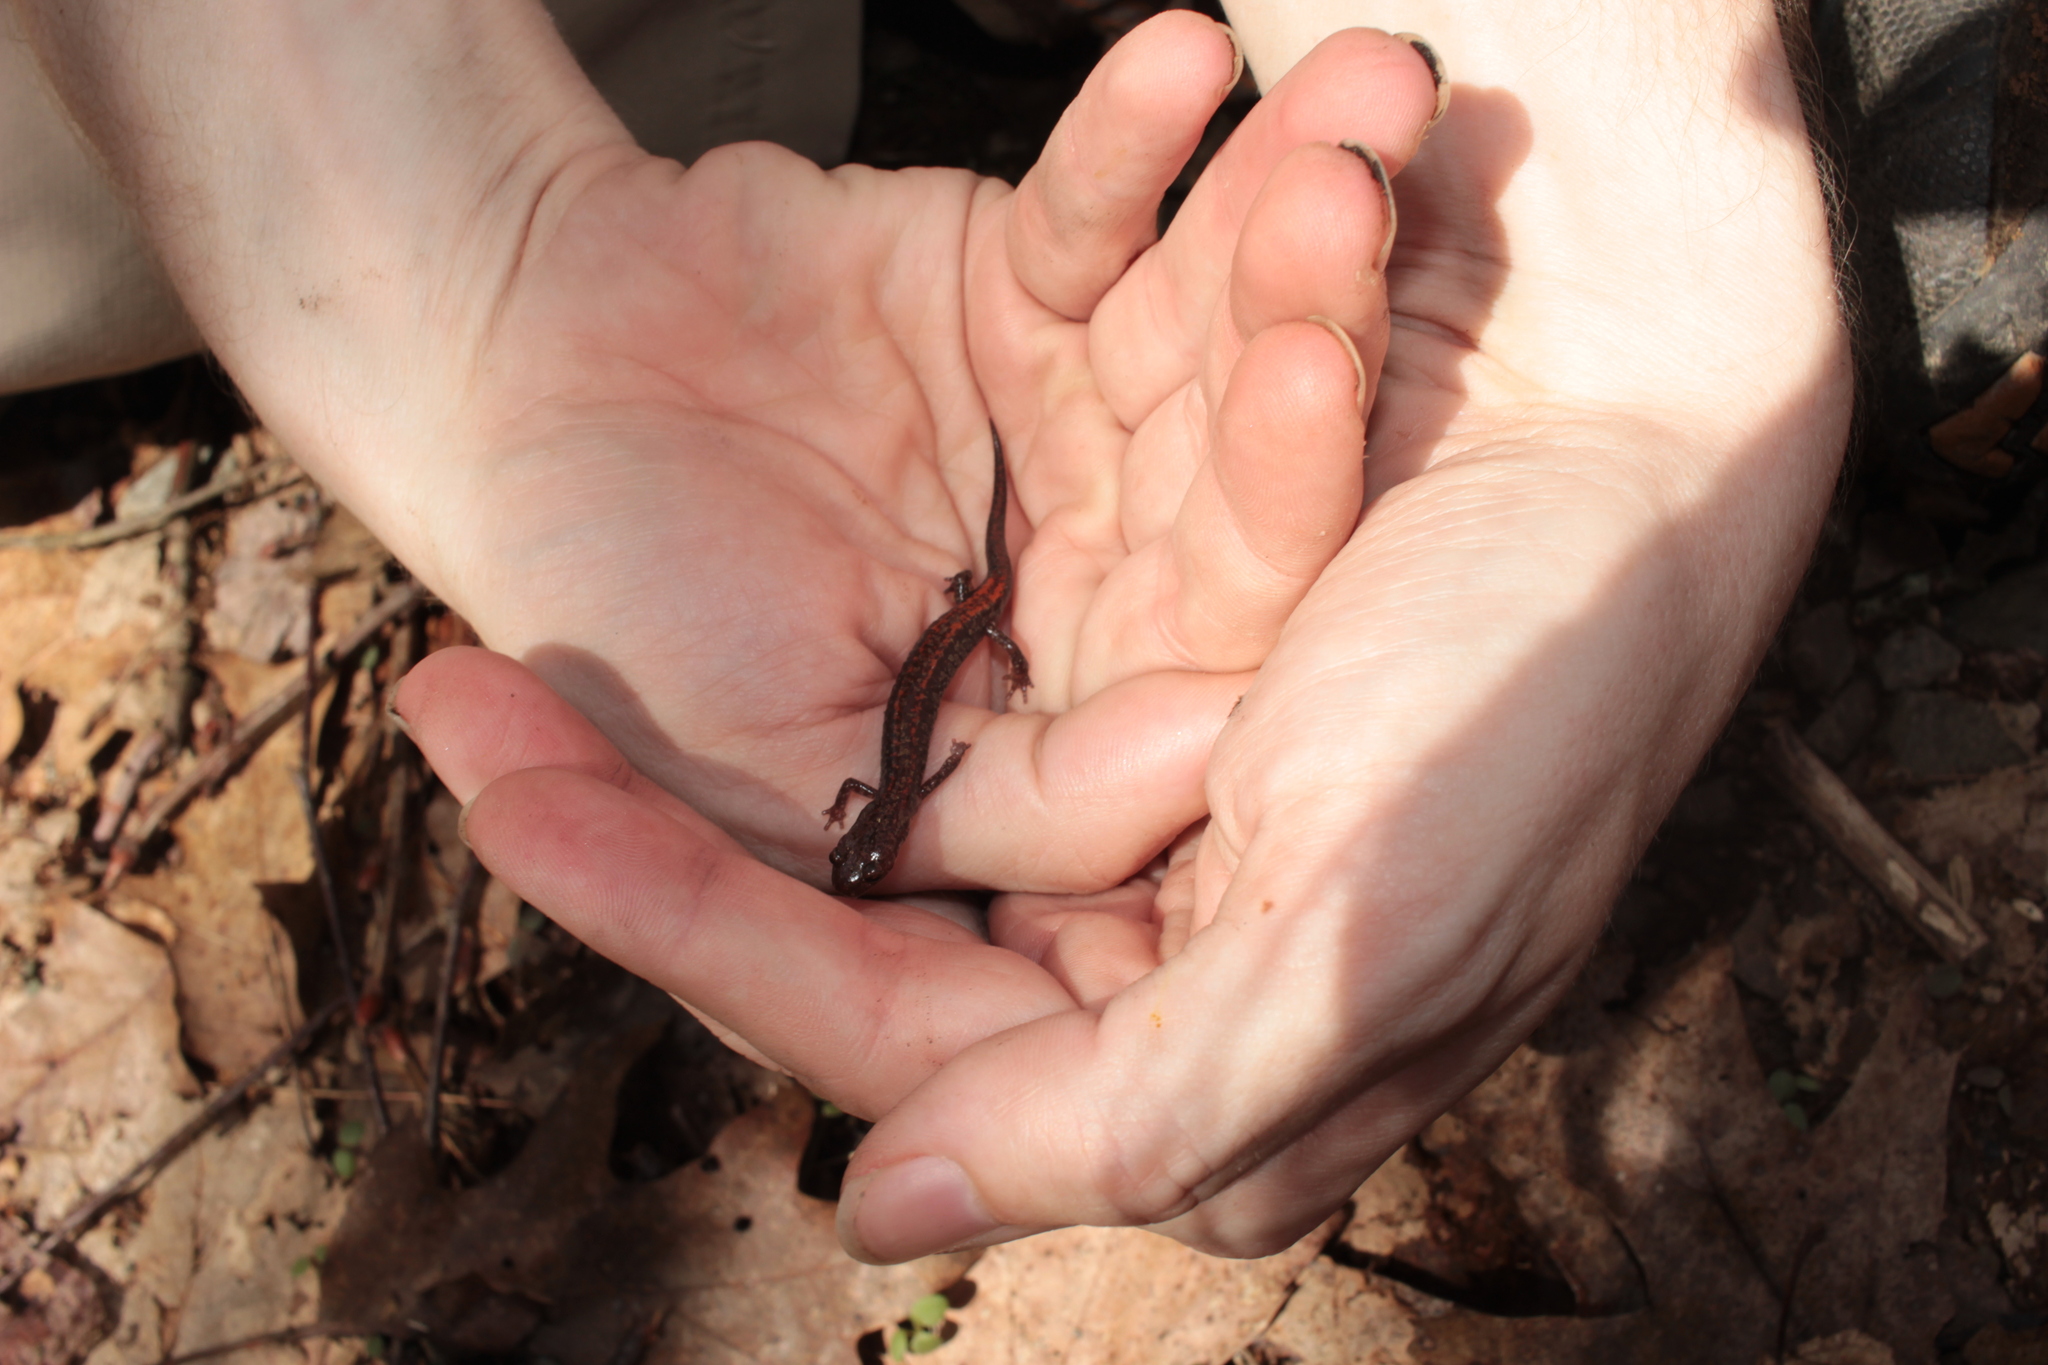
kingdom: Animalia
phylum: Chordata
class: Amphibia
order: Caudata
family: Plethodontidae
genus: Plethodon
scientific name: Plethodon sherando
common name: Big levels salamander
